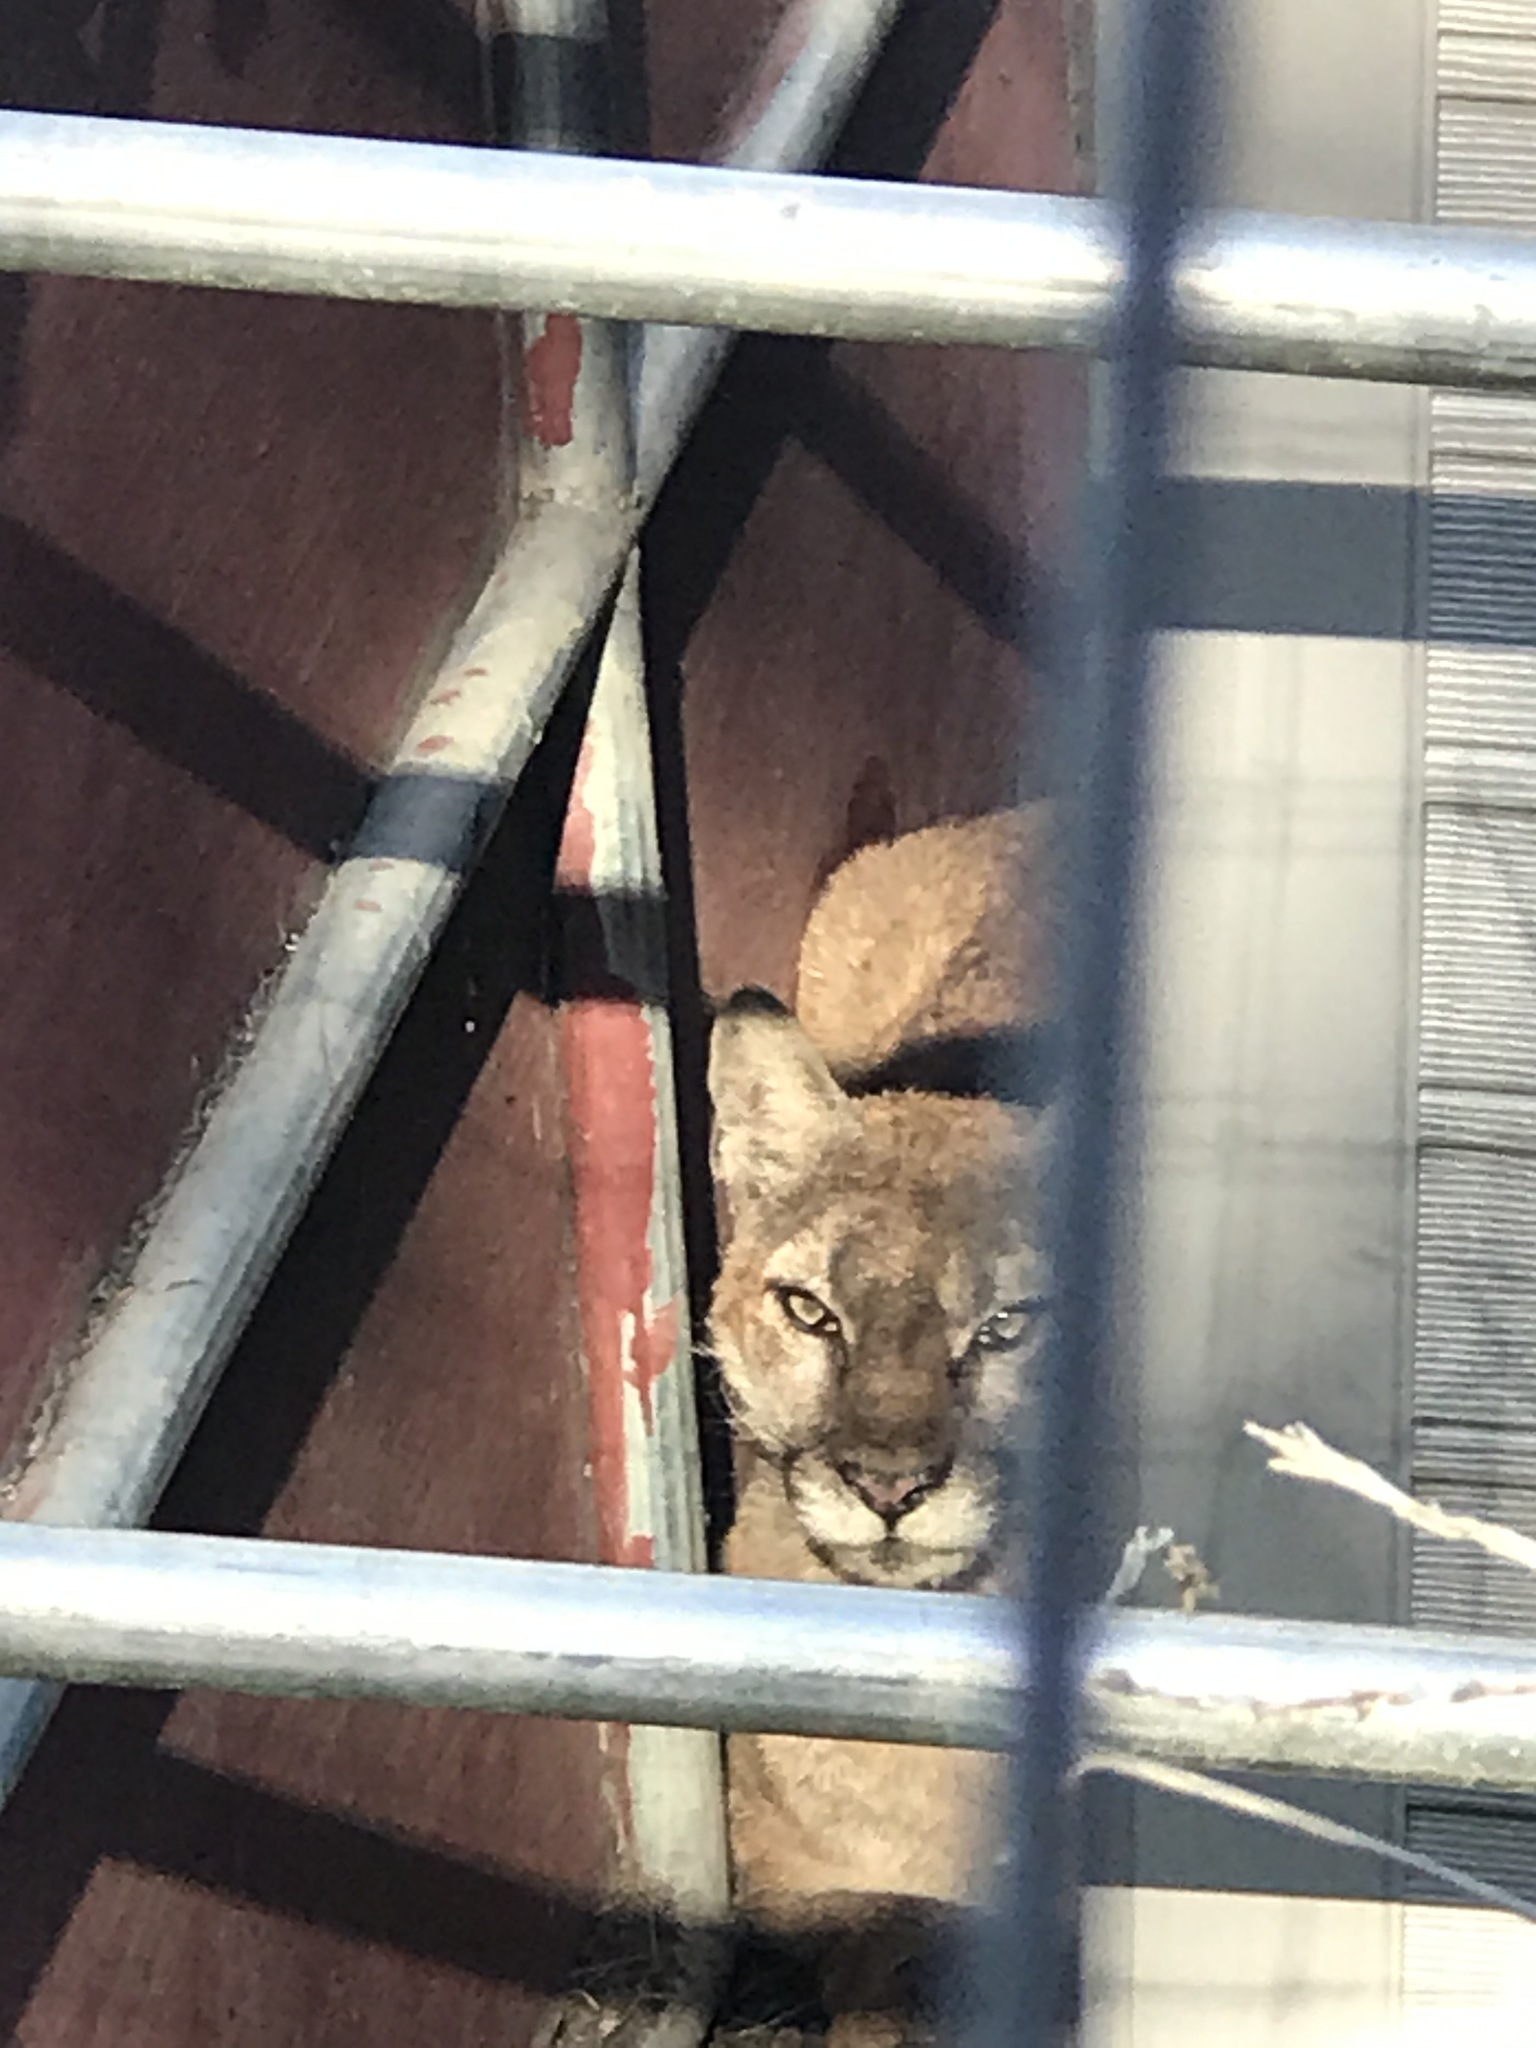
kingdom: Animalia
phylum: Chordata
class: Mammalia
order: Carnivora
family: Felidae
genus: Puma
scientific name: Puma concolor
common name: Puma
